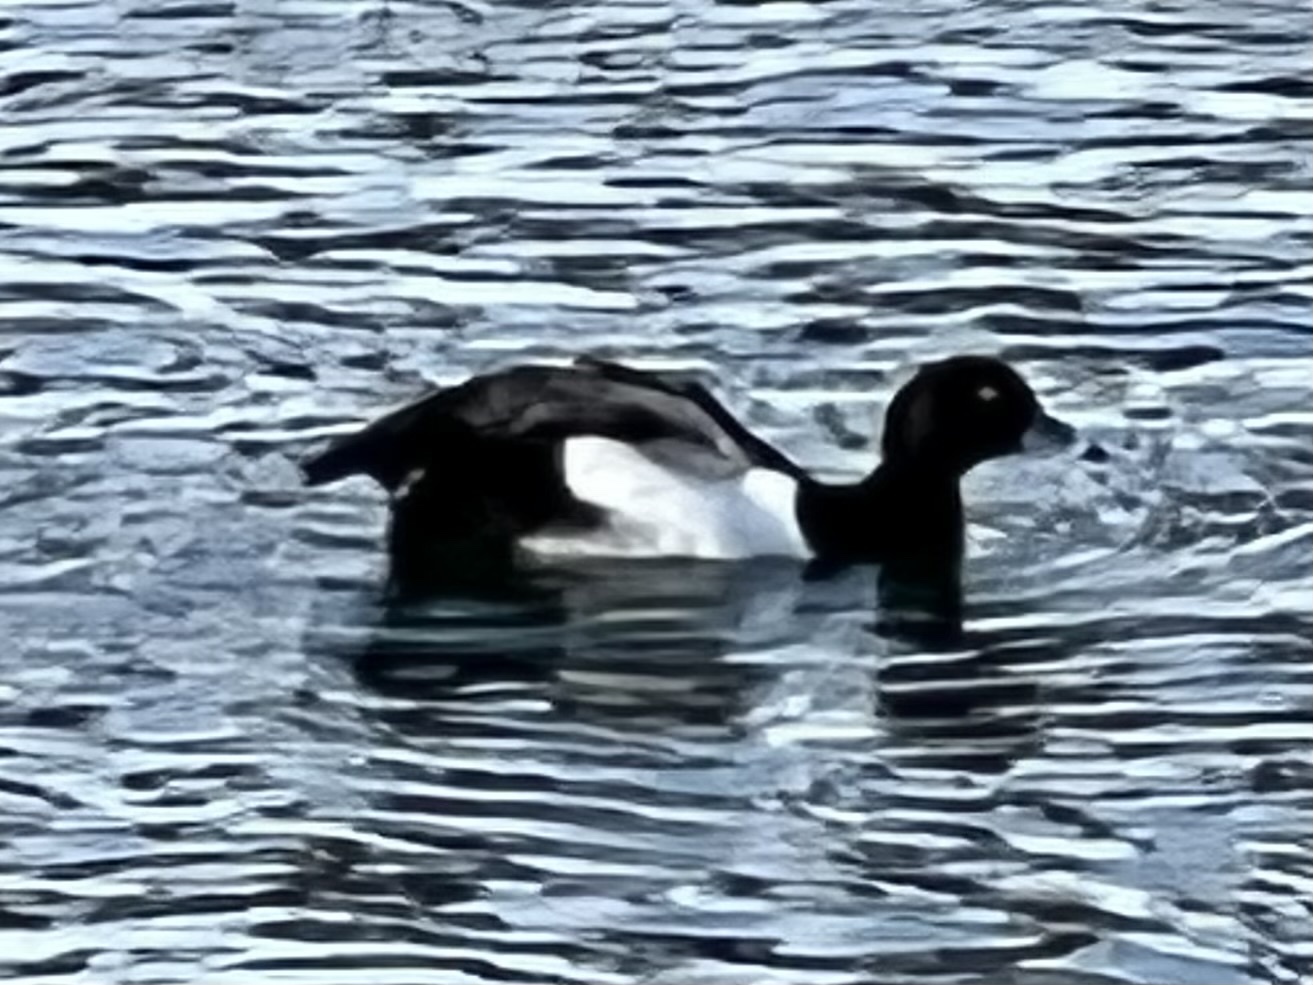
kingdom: Animalia
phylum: Chordata
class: Aves
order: Anseriformes
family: Anatidae
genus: Aythya
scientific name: Aythya fuligula
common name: Tufted duck
